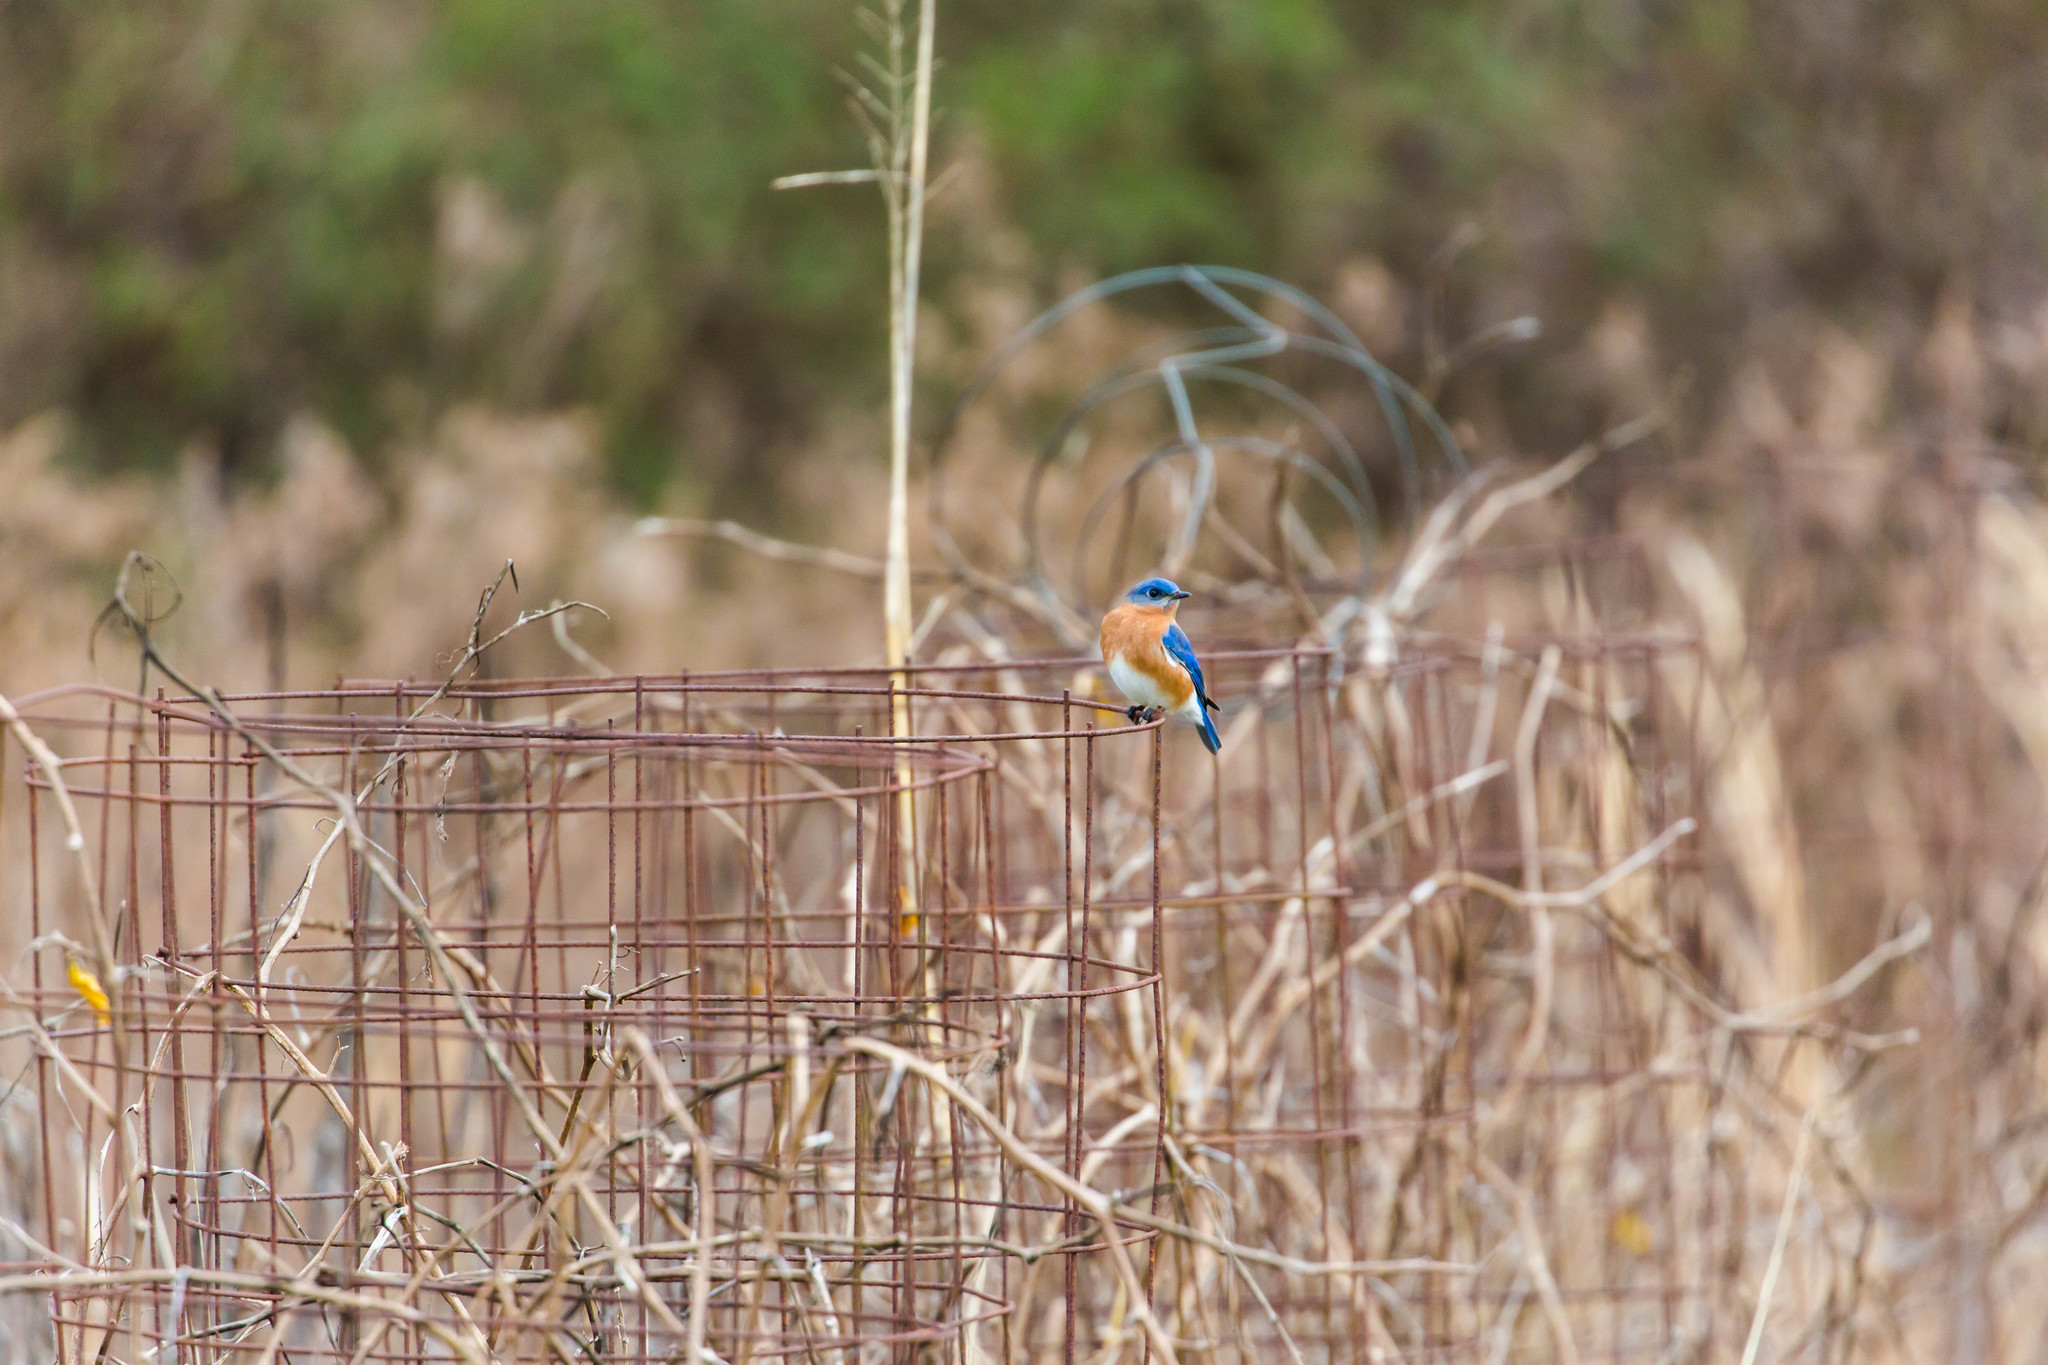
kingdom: Animalia
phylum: Chordata
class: Aves
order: Passeriformes
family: Turdidae
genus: Sialia
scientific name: Sialia sialis
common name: Eastern bluebird
